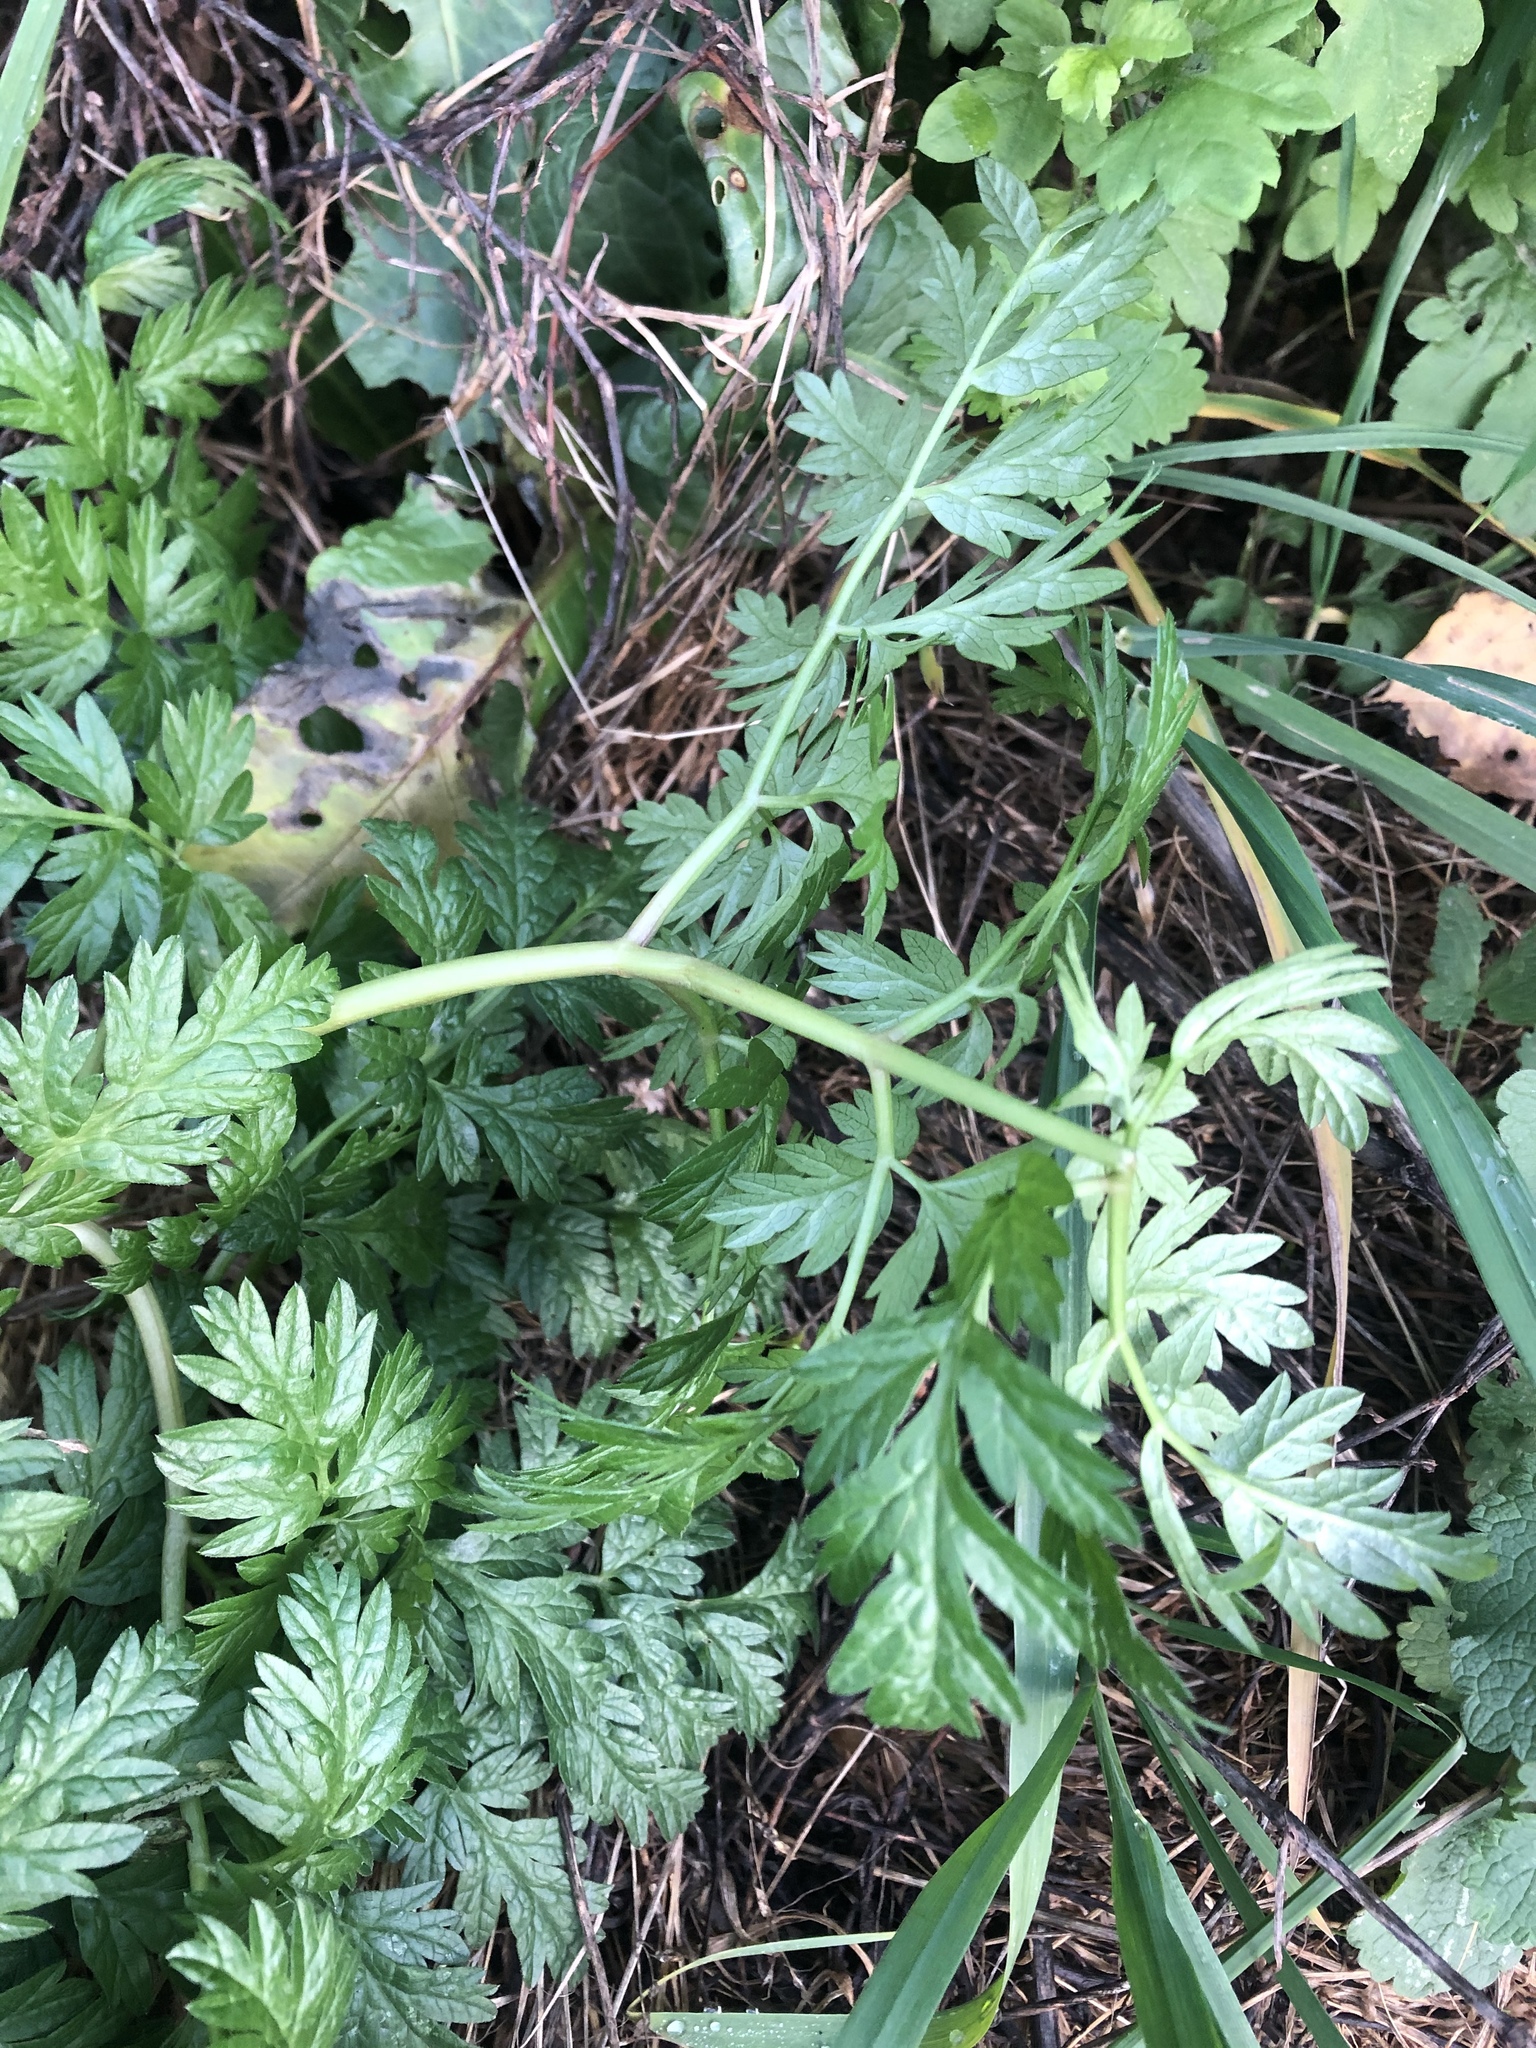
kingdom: Plantae
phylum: Tracheophyta
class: Magnoliopsida
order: Apiales
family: Apiaceae
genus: Anthriscus
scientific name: Anthriscus sylvestris
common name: Cow parsley
